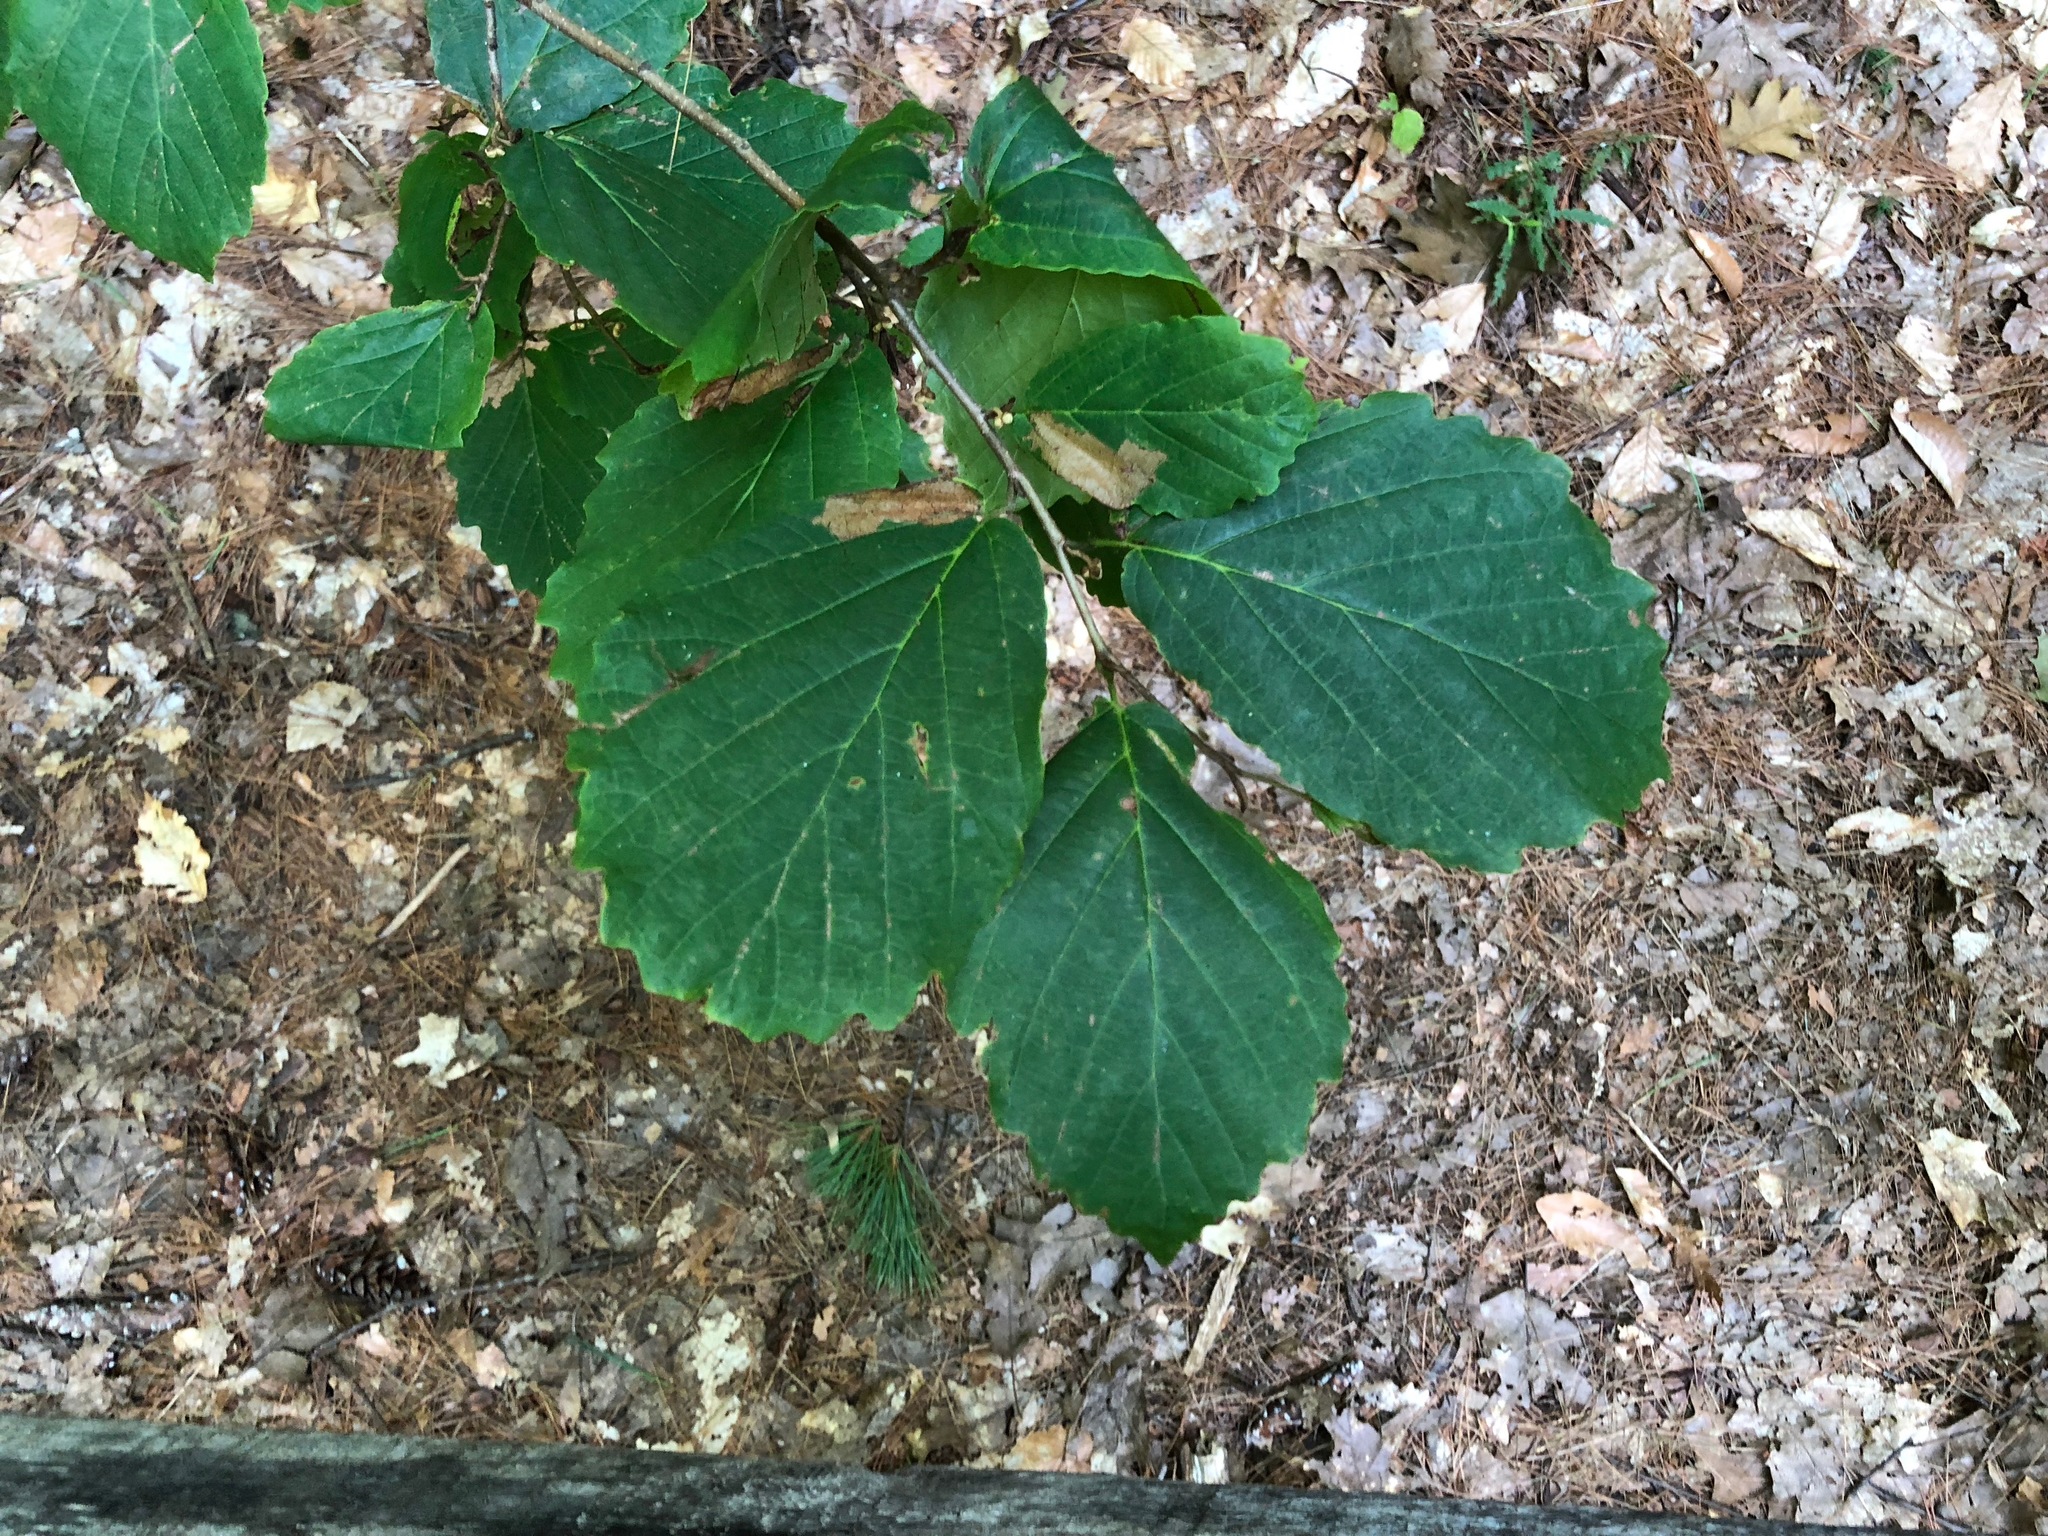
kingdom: Plantae
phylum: Tracheophyta
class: Magnoliopsida
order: Saxifragales
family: Hamamelidaceae
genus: Hamamelis
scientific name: Hamamelis virginiana
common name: Witch-hazel
